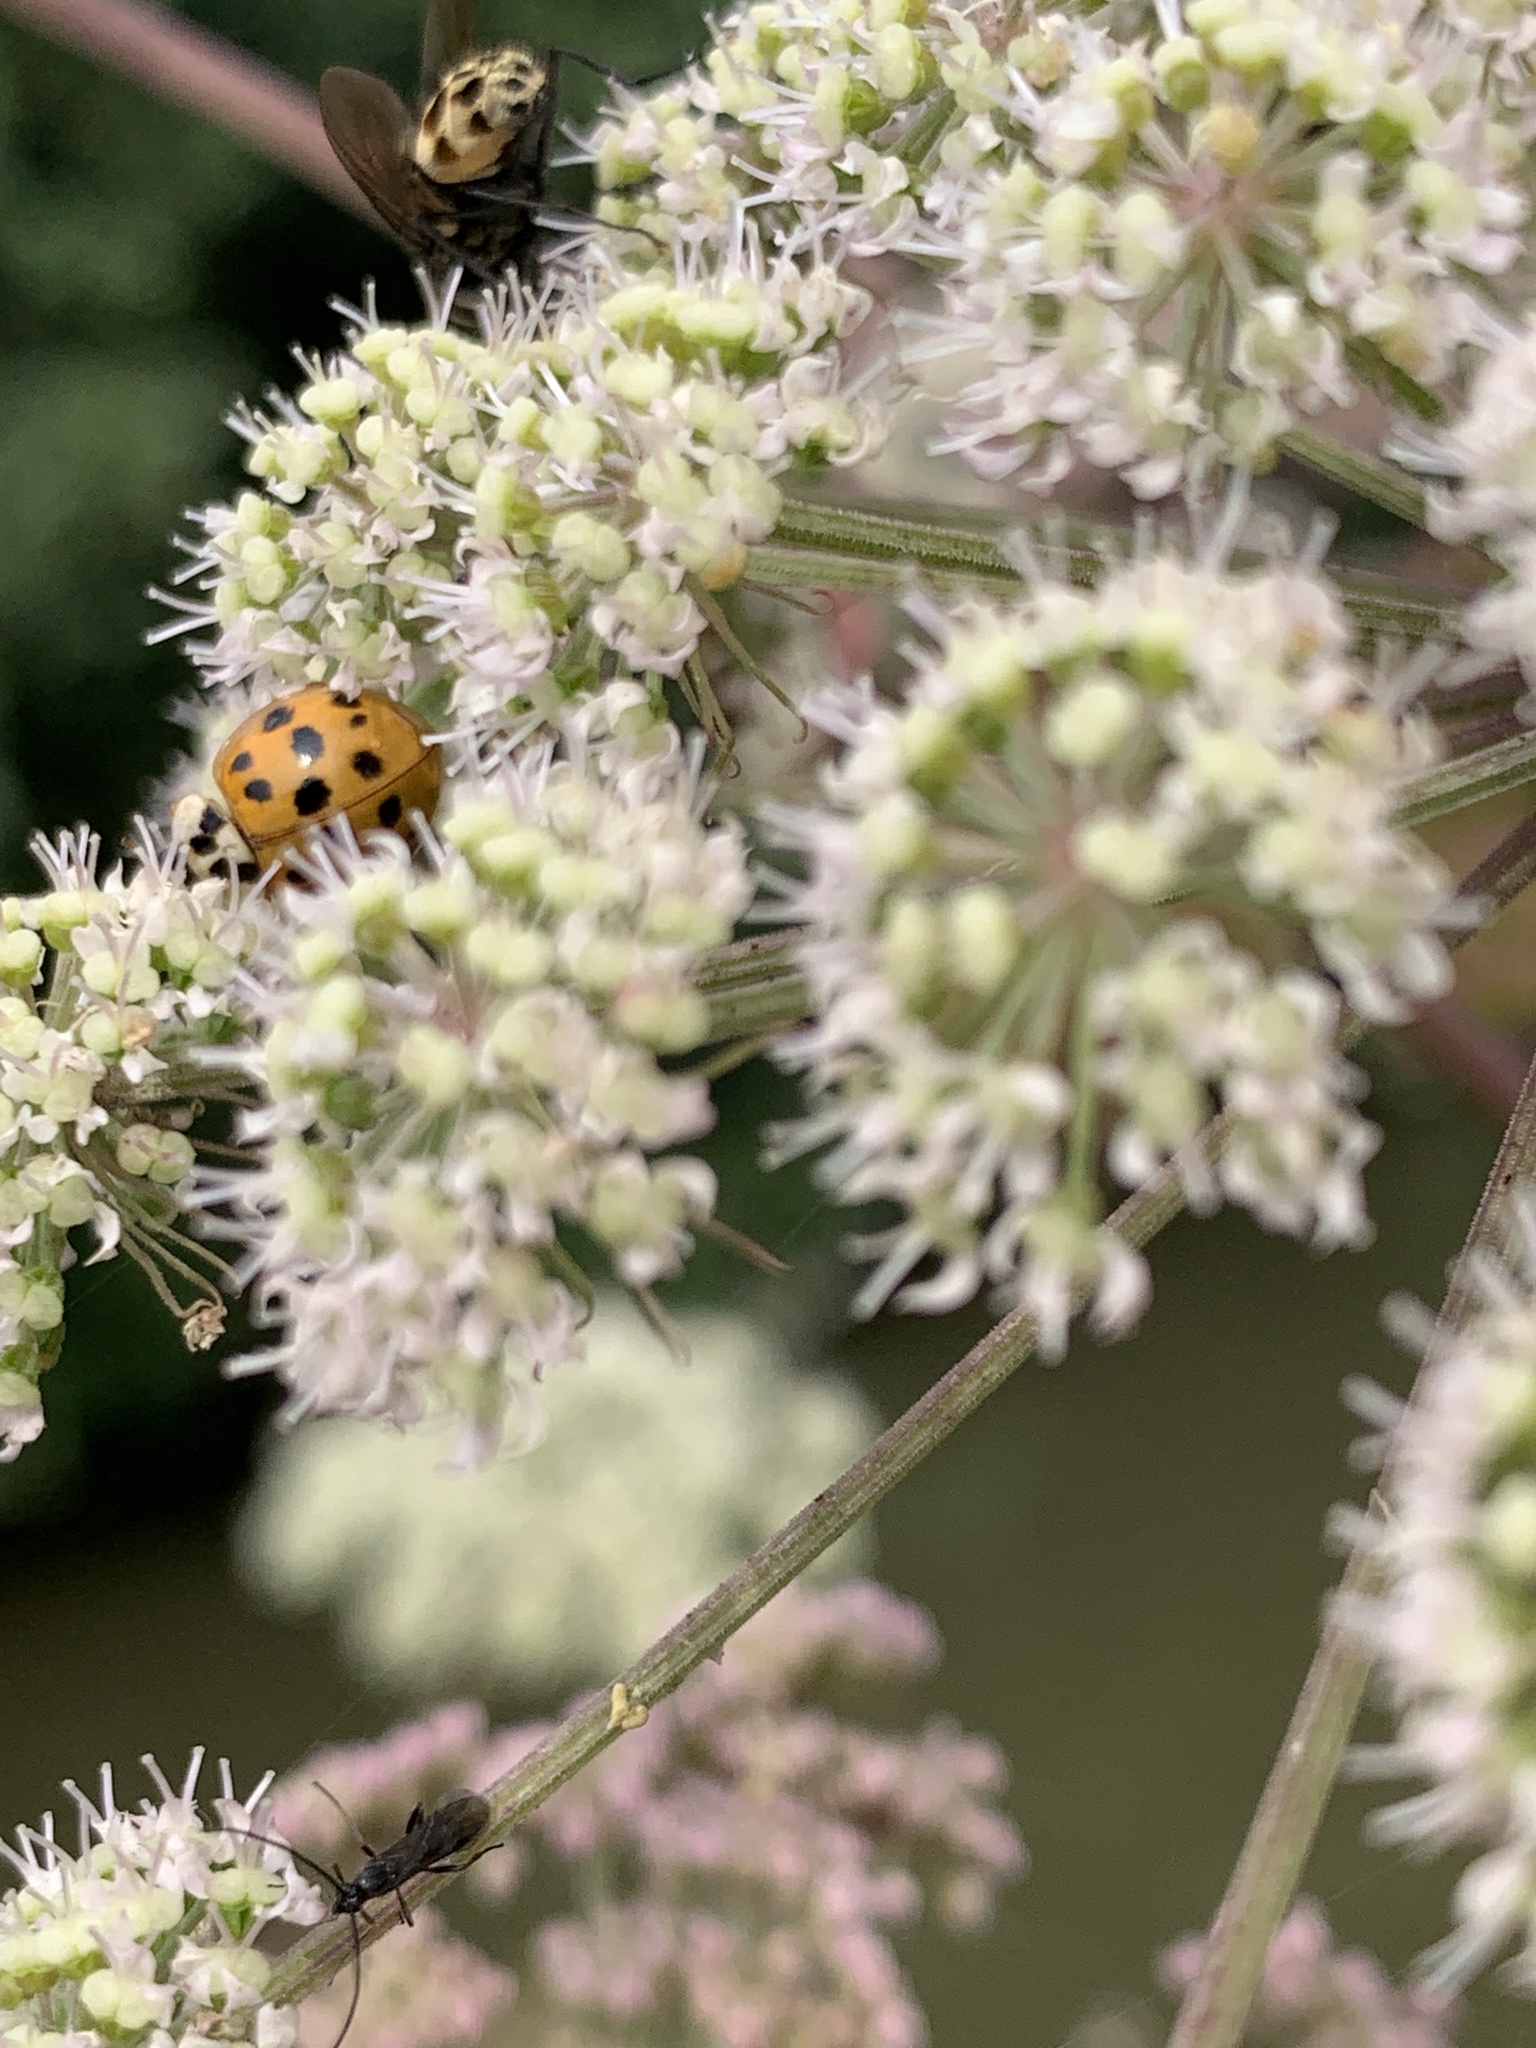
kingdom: Animalia
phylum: Arthropoda
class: Insecta
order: Coleoptera
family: Coccinellidae
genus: Harmonia
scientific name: Harmonia axyridis
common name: Harlequin ladybird
